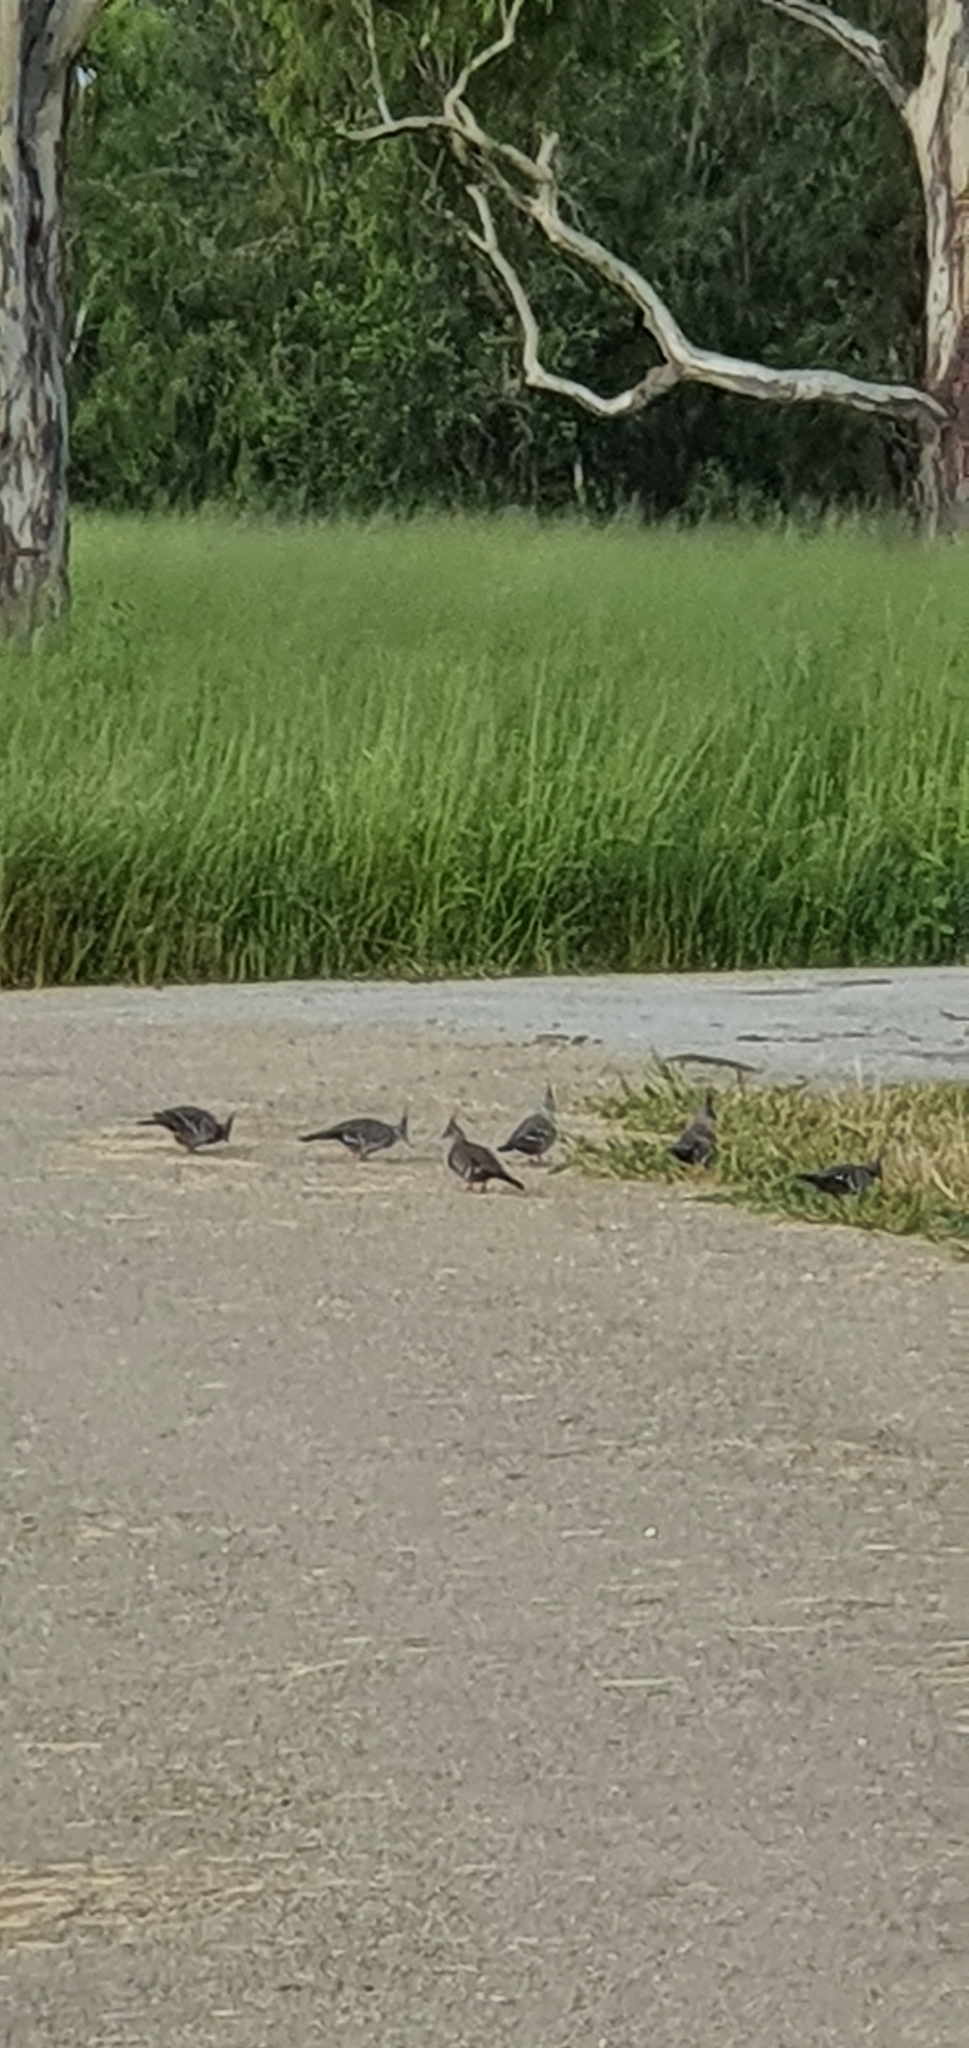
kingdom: Animalia
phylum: Chordata
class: Aves
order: Columbiformes
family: Columbidae
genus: Ocyphaps
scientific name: Ocyphaps lophotes
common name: Crested pigeon
